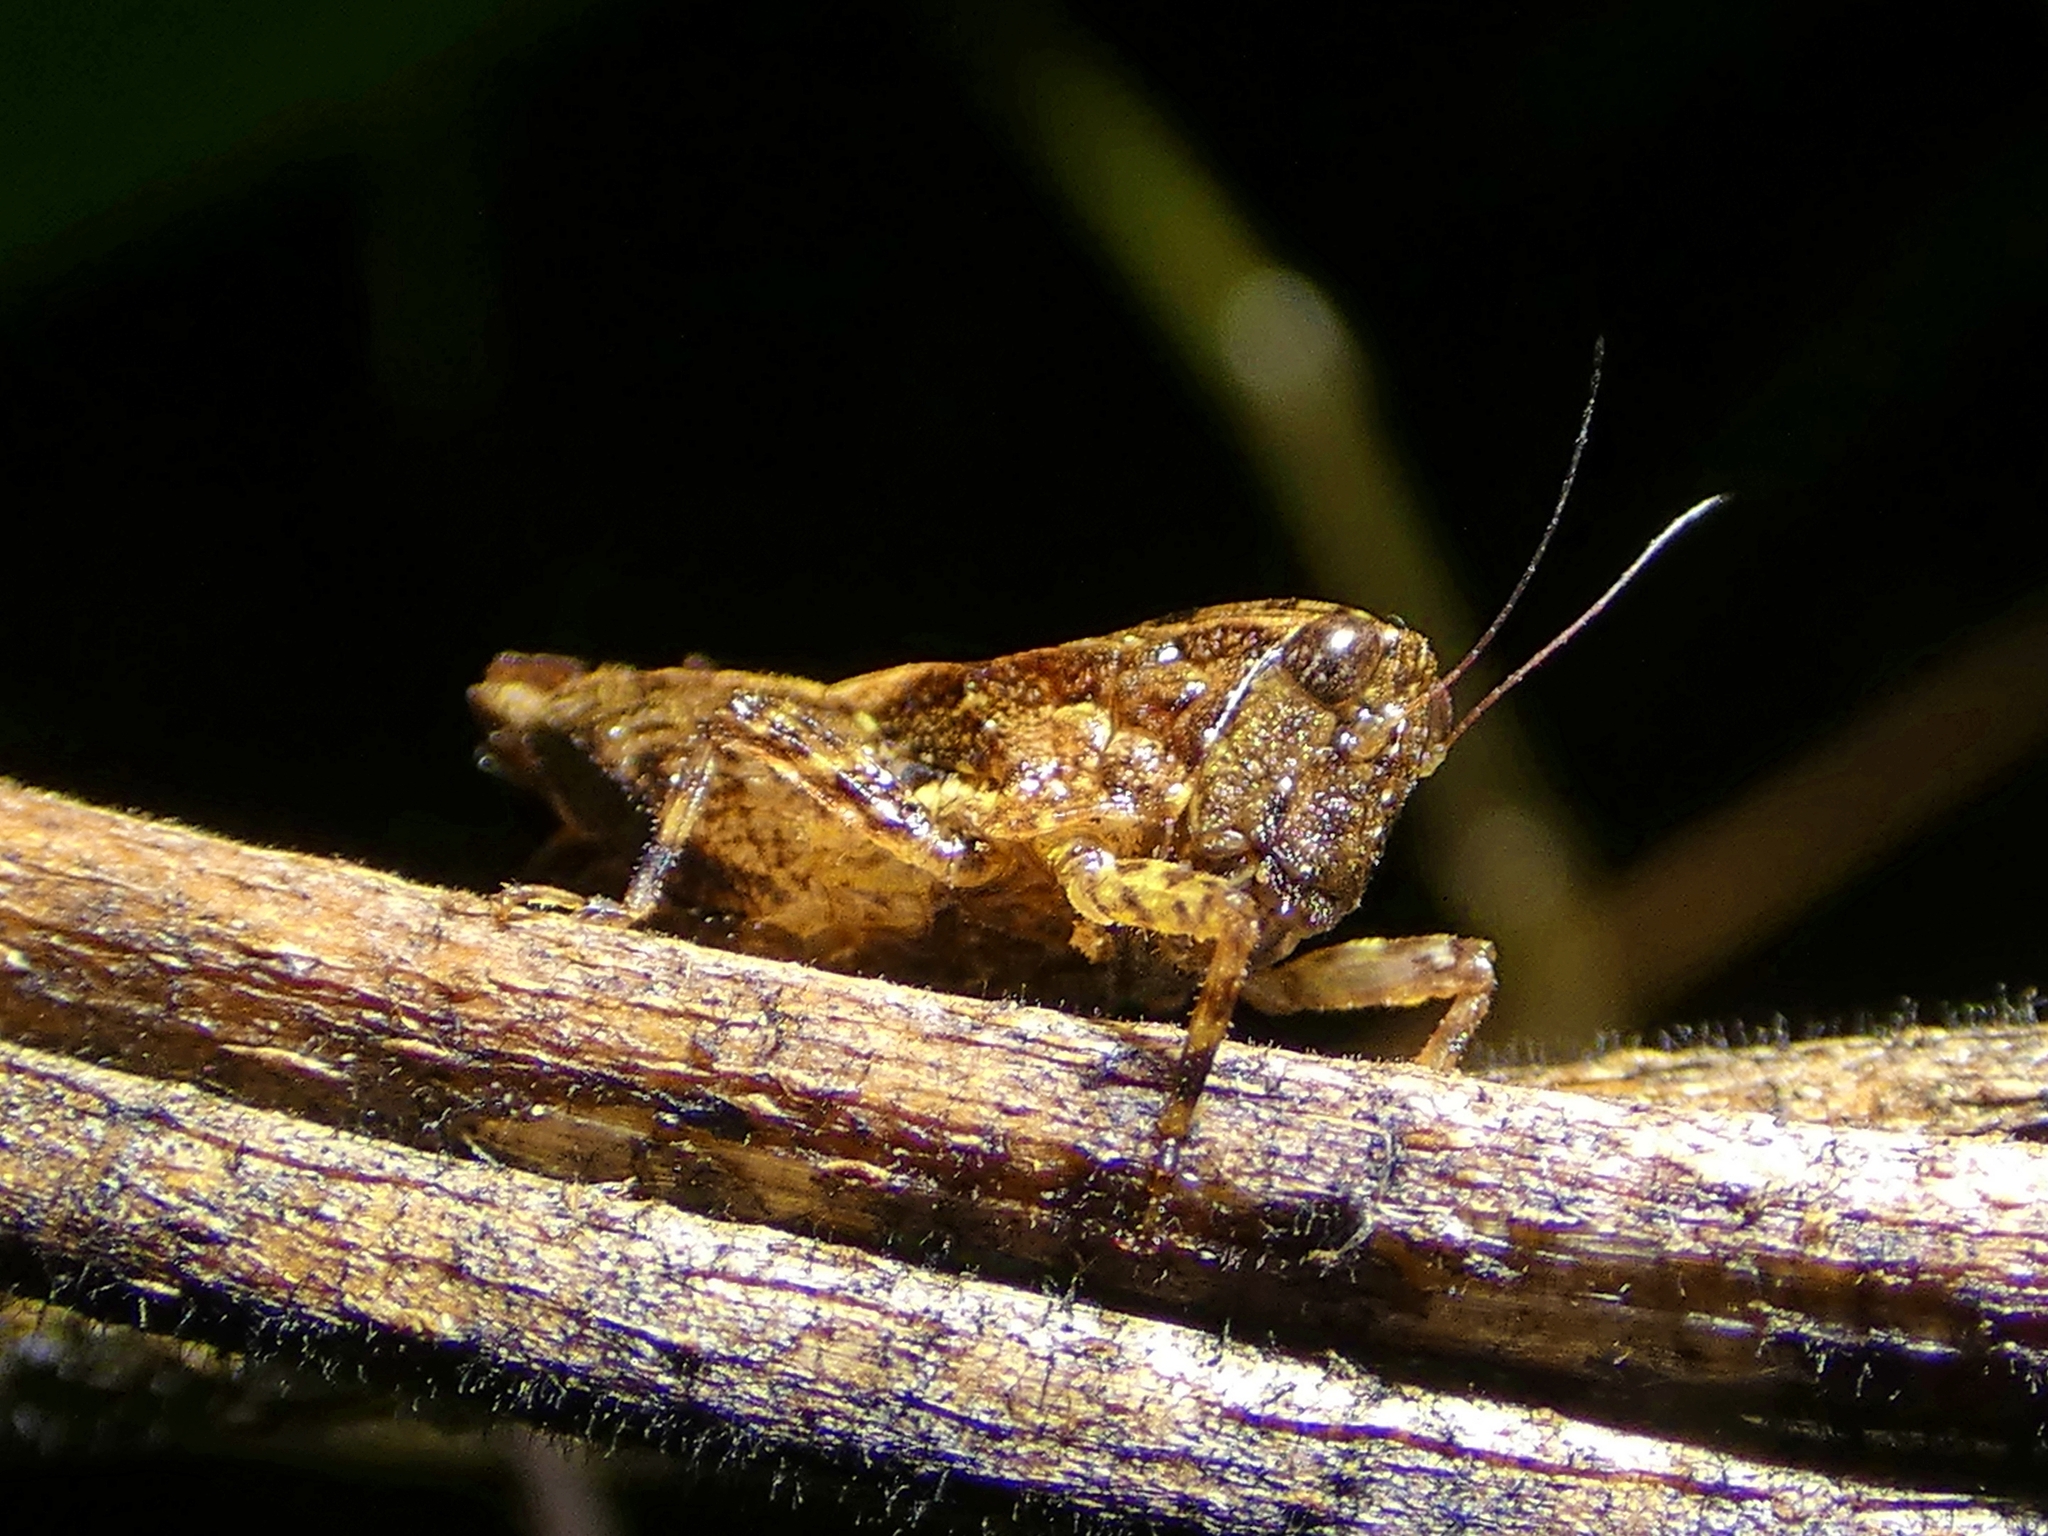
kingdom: Animalia
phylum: Arthropoda
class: Insecta
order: Orthoptera
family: Tetrigidae
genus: Anaselina
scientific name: Anaselina minor
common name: Tiny helmed groundhopper
